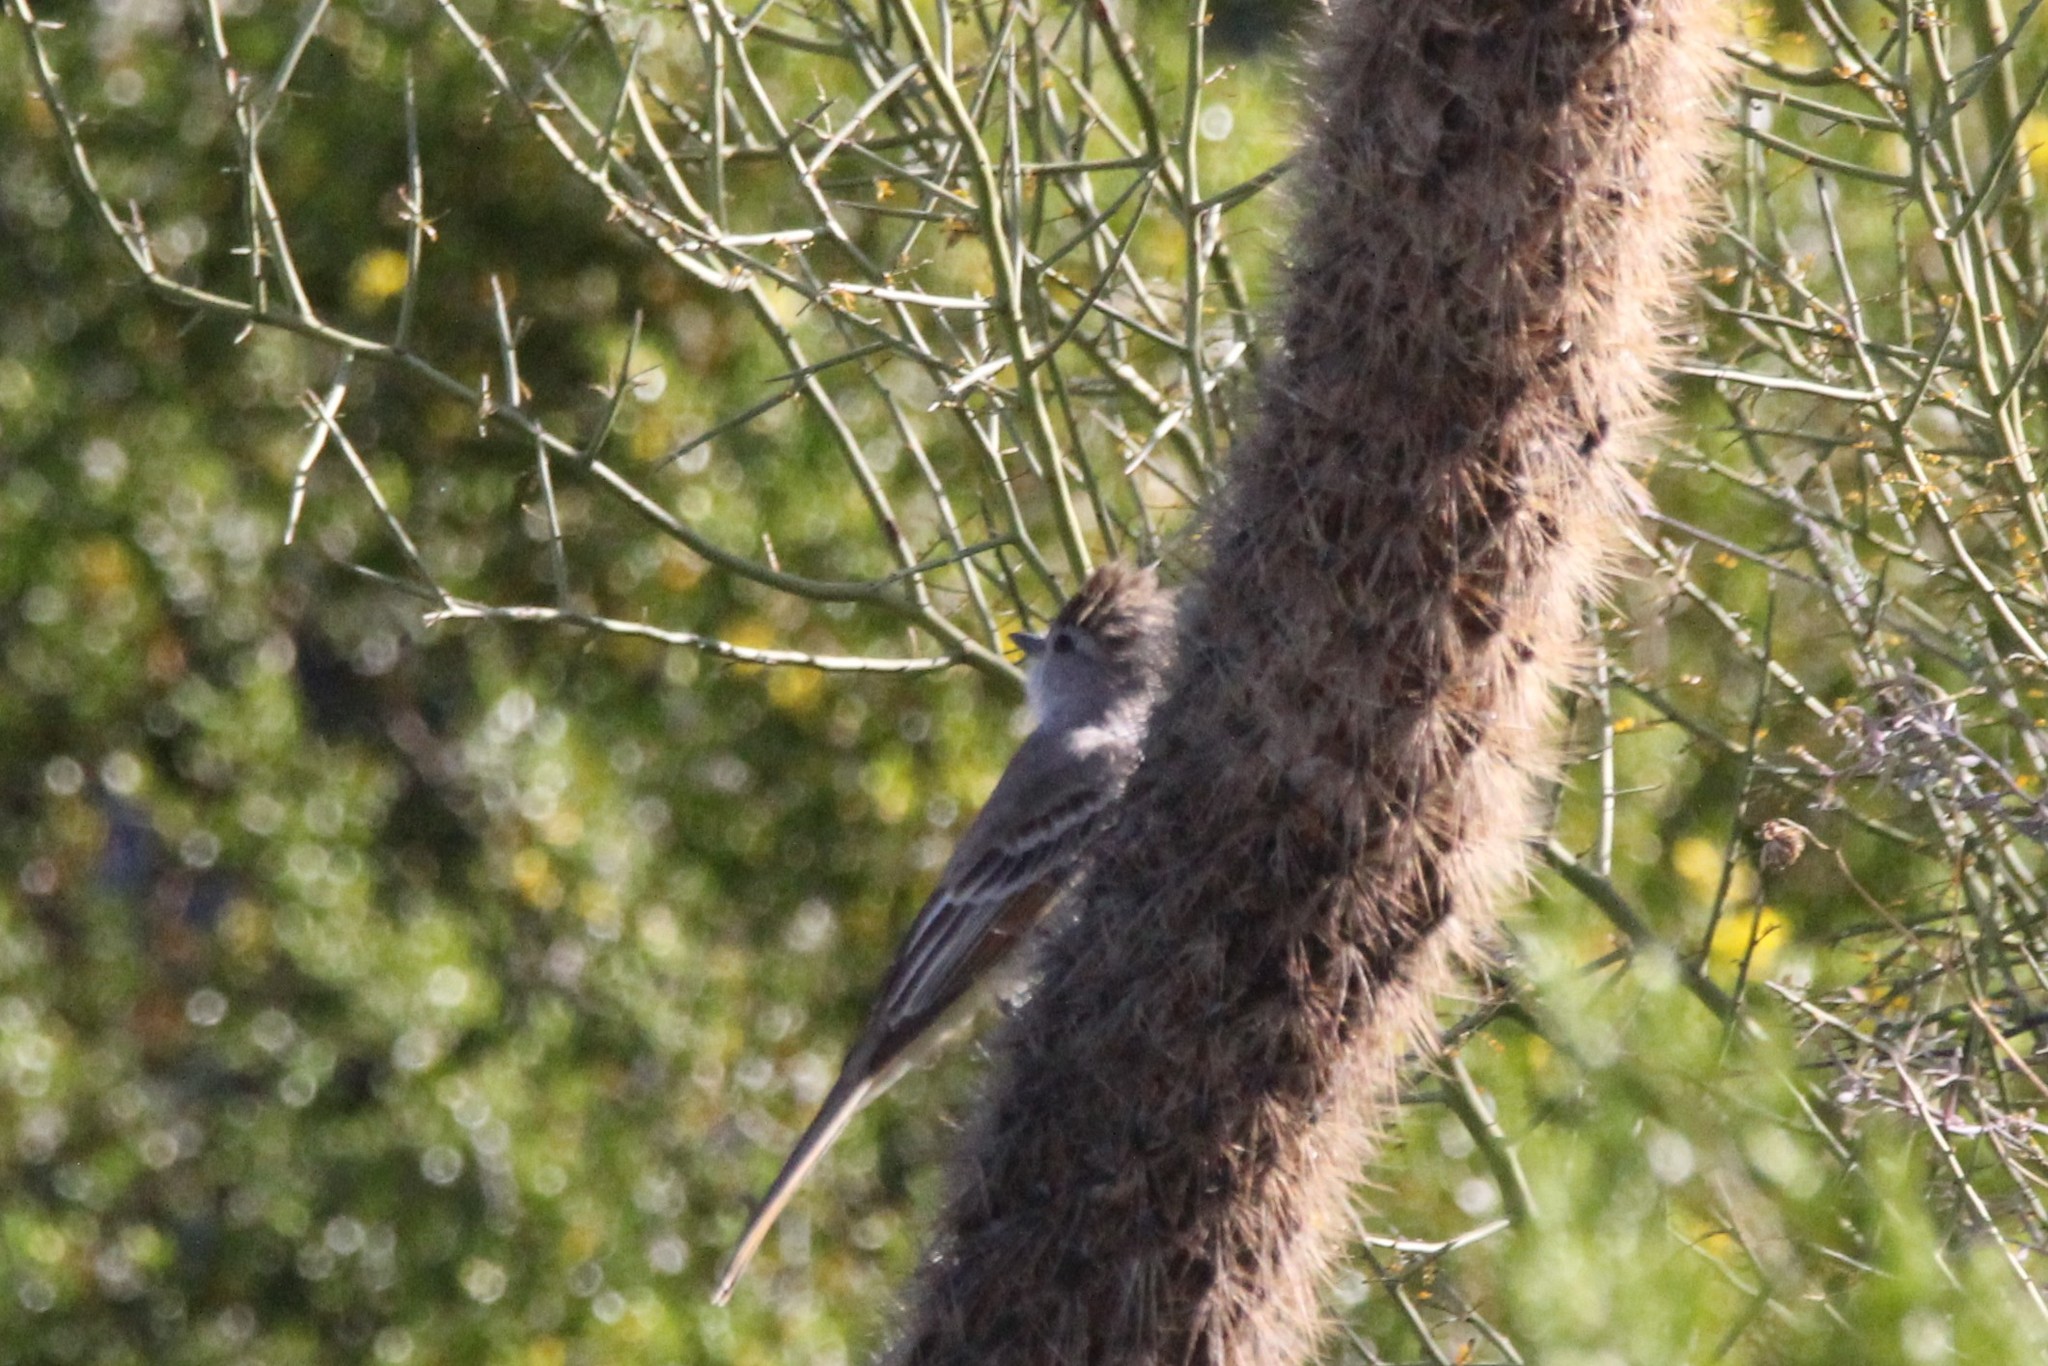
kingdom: Animalia
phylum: Chordata
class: Aves
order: Passeriformes
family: Tyrannidae
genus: Myiarchus
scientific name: Myiarchus cinerascens
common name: Ash-throated flycatcher
